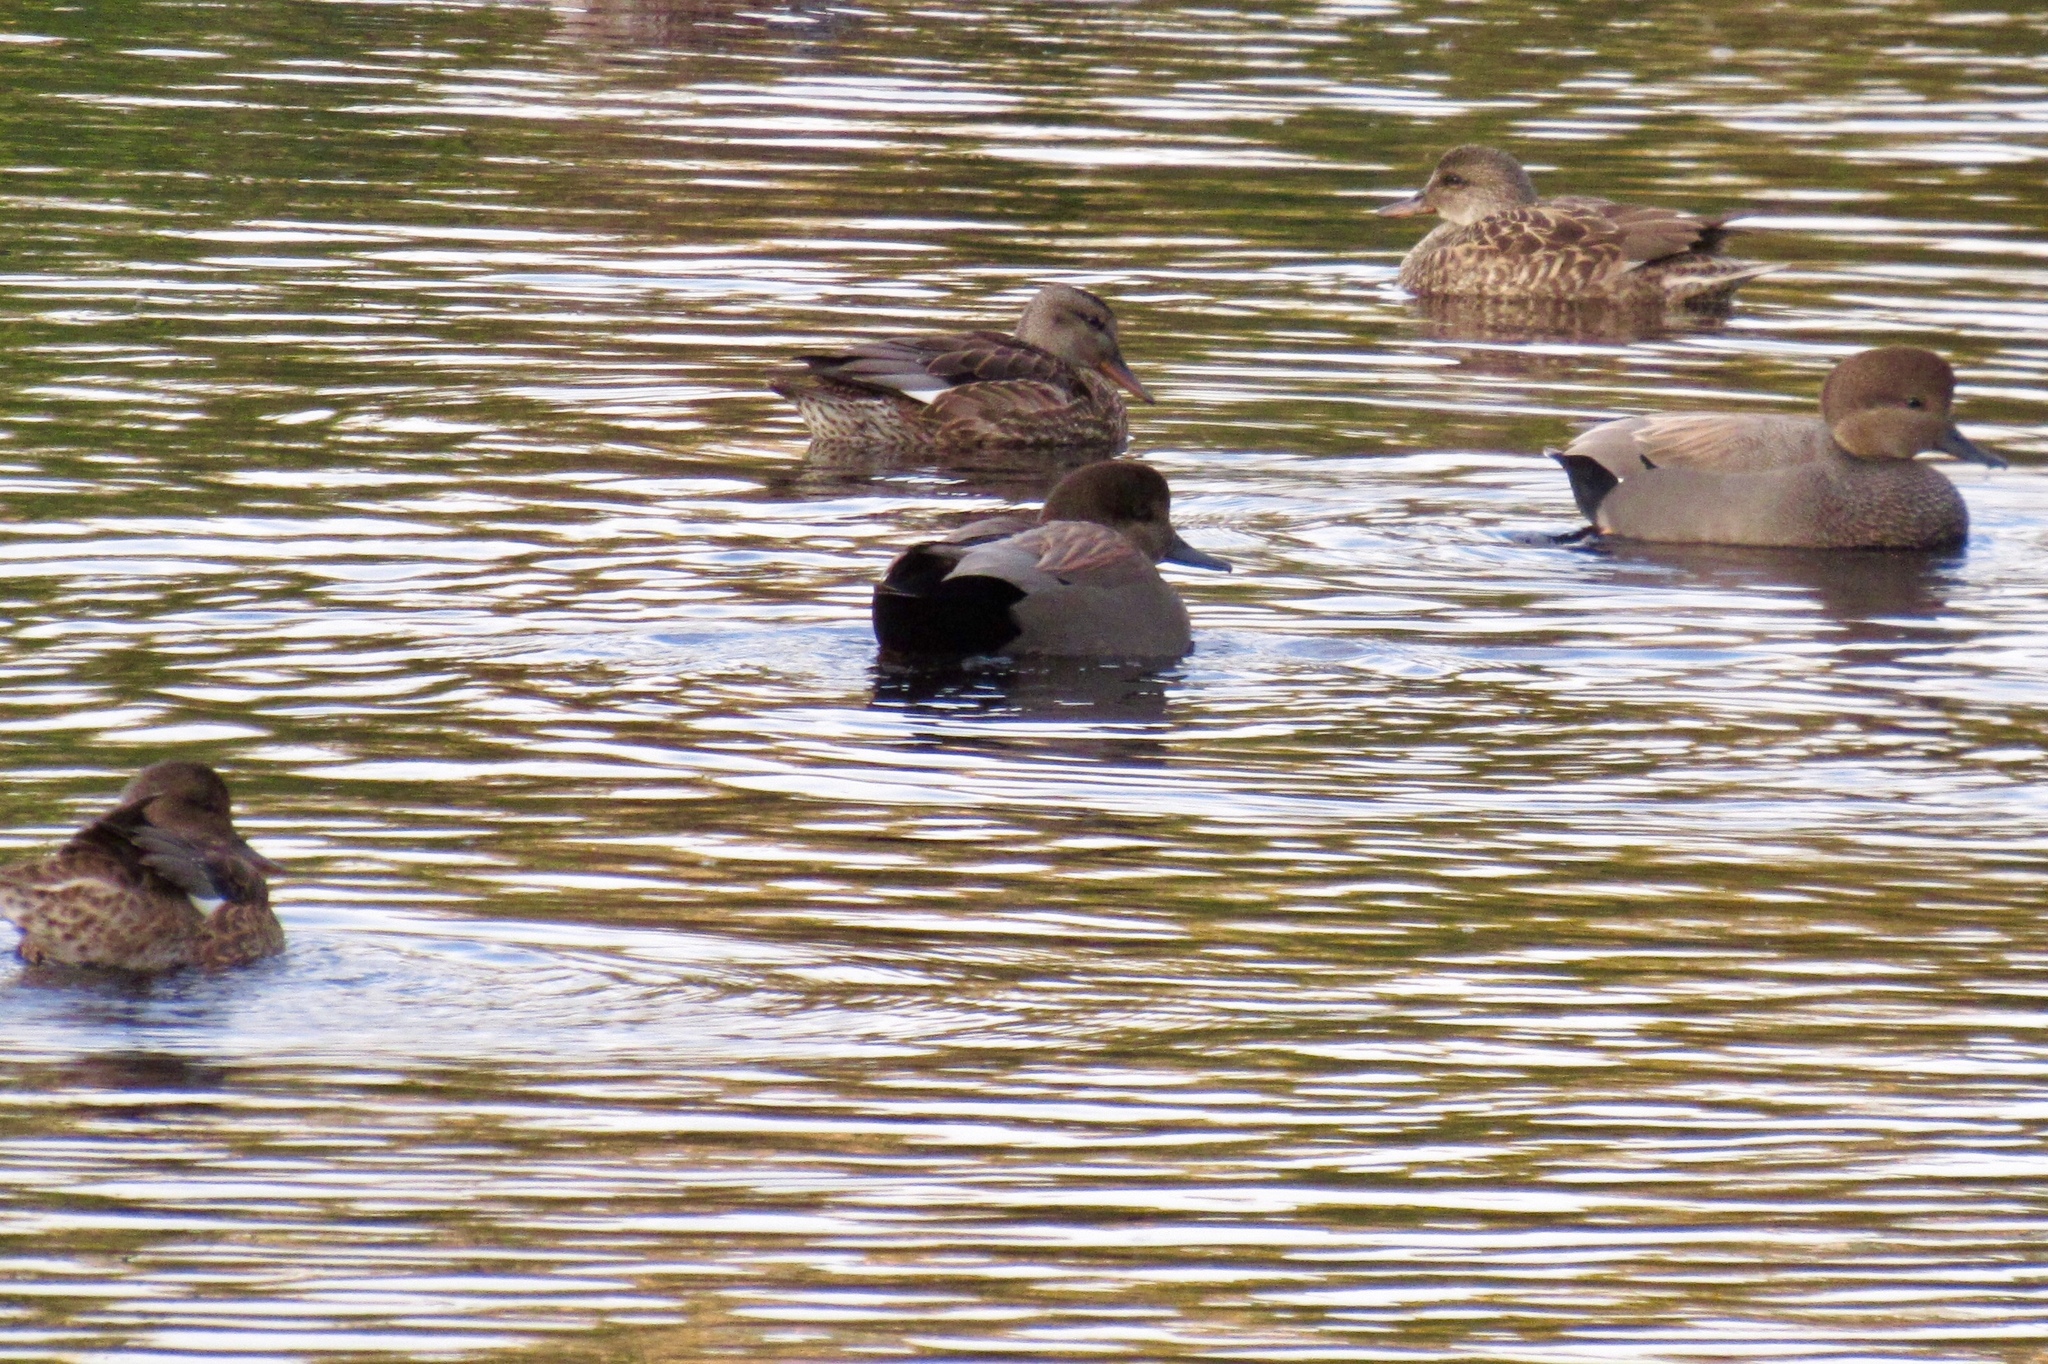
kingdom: Animalia
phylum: Chordata
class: Aves
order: Anseriformes
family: Anatidae
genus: Mareca
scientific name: Mareca strepera
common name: Gadwall
